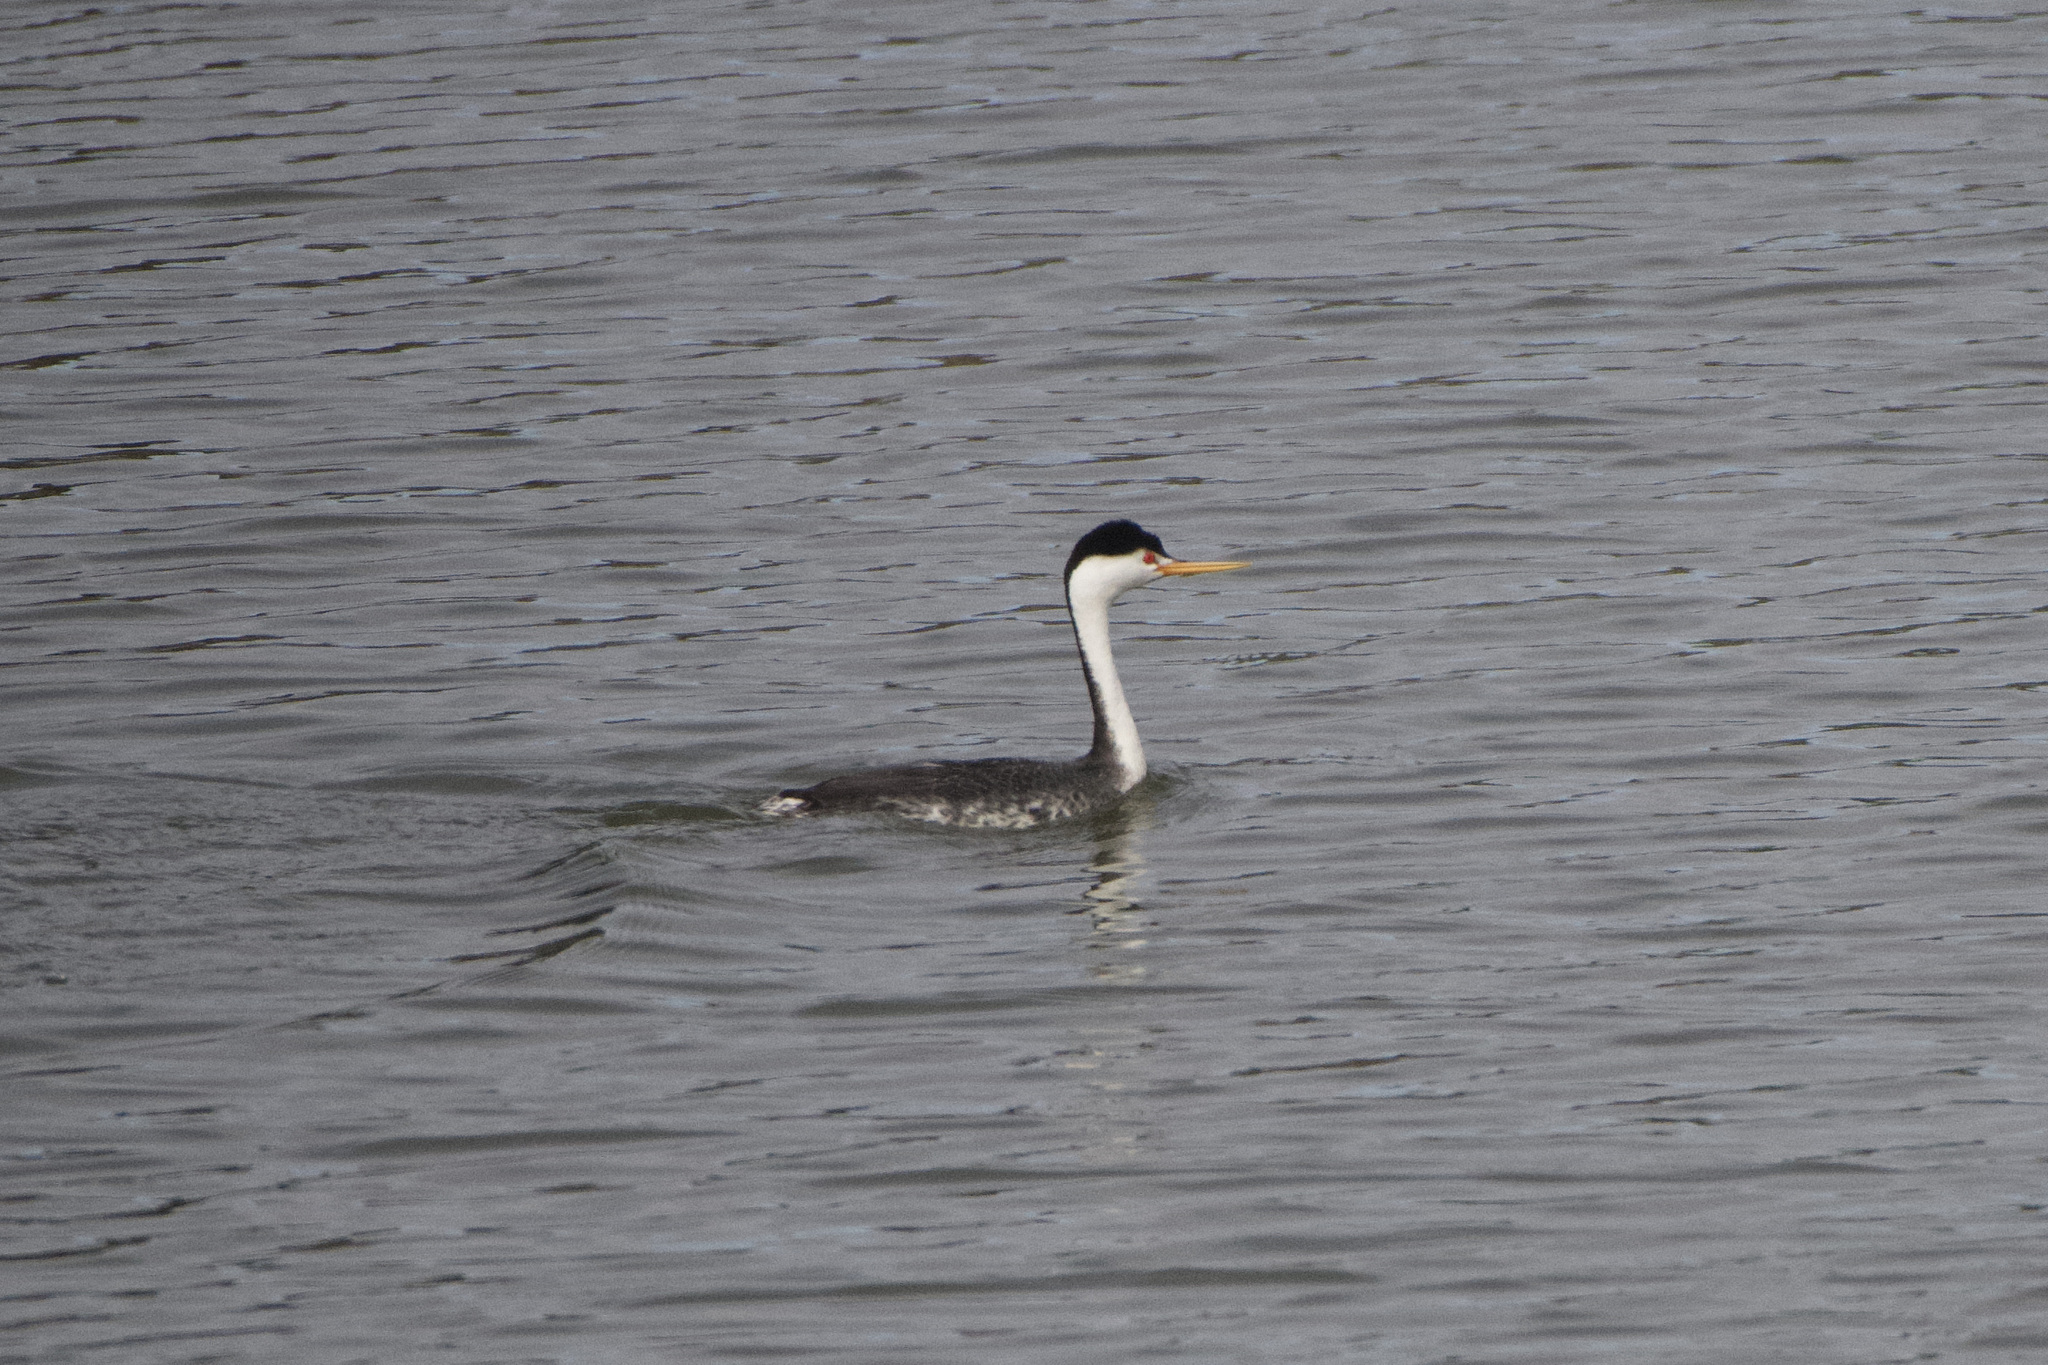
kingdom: Animalia
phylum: Chordata
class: Aves
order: Podicipediformes
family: Podicipedidae
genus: Aechmophorus
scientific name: Aechmophorus clarkii
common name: Clark's grebe
